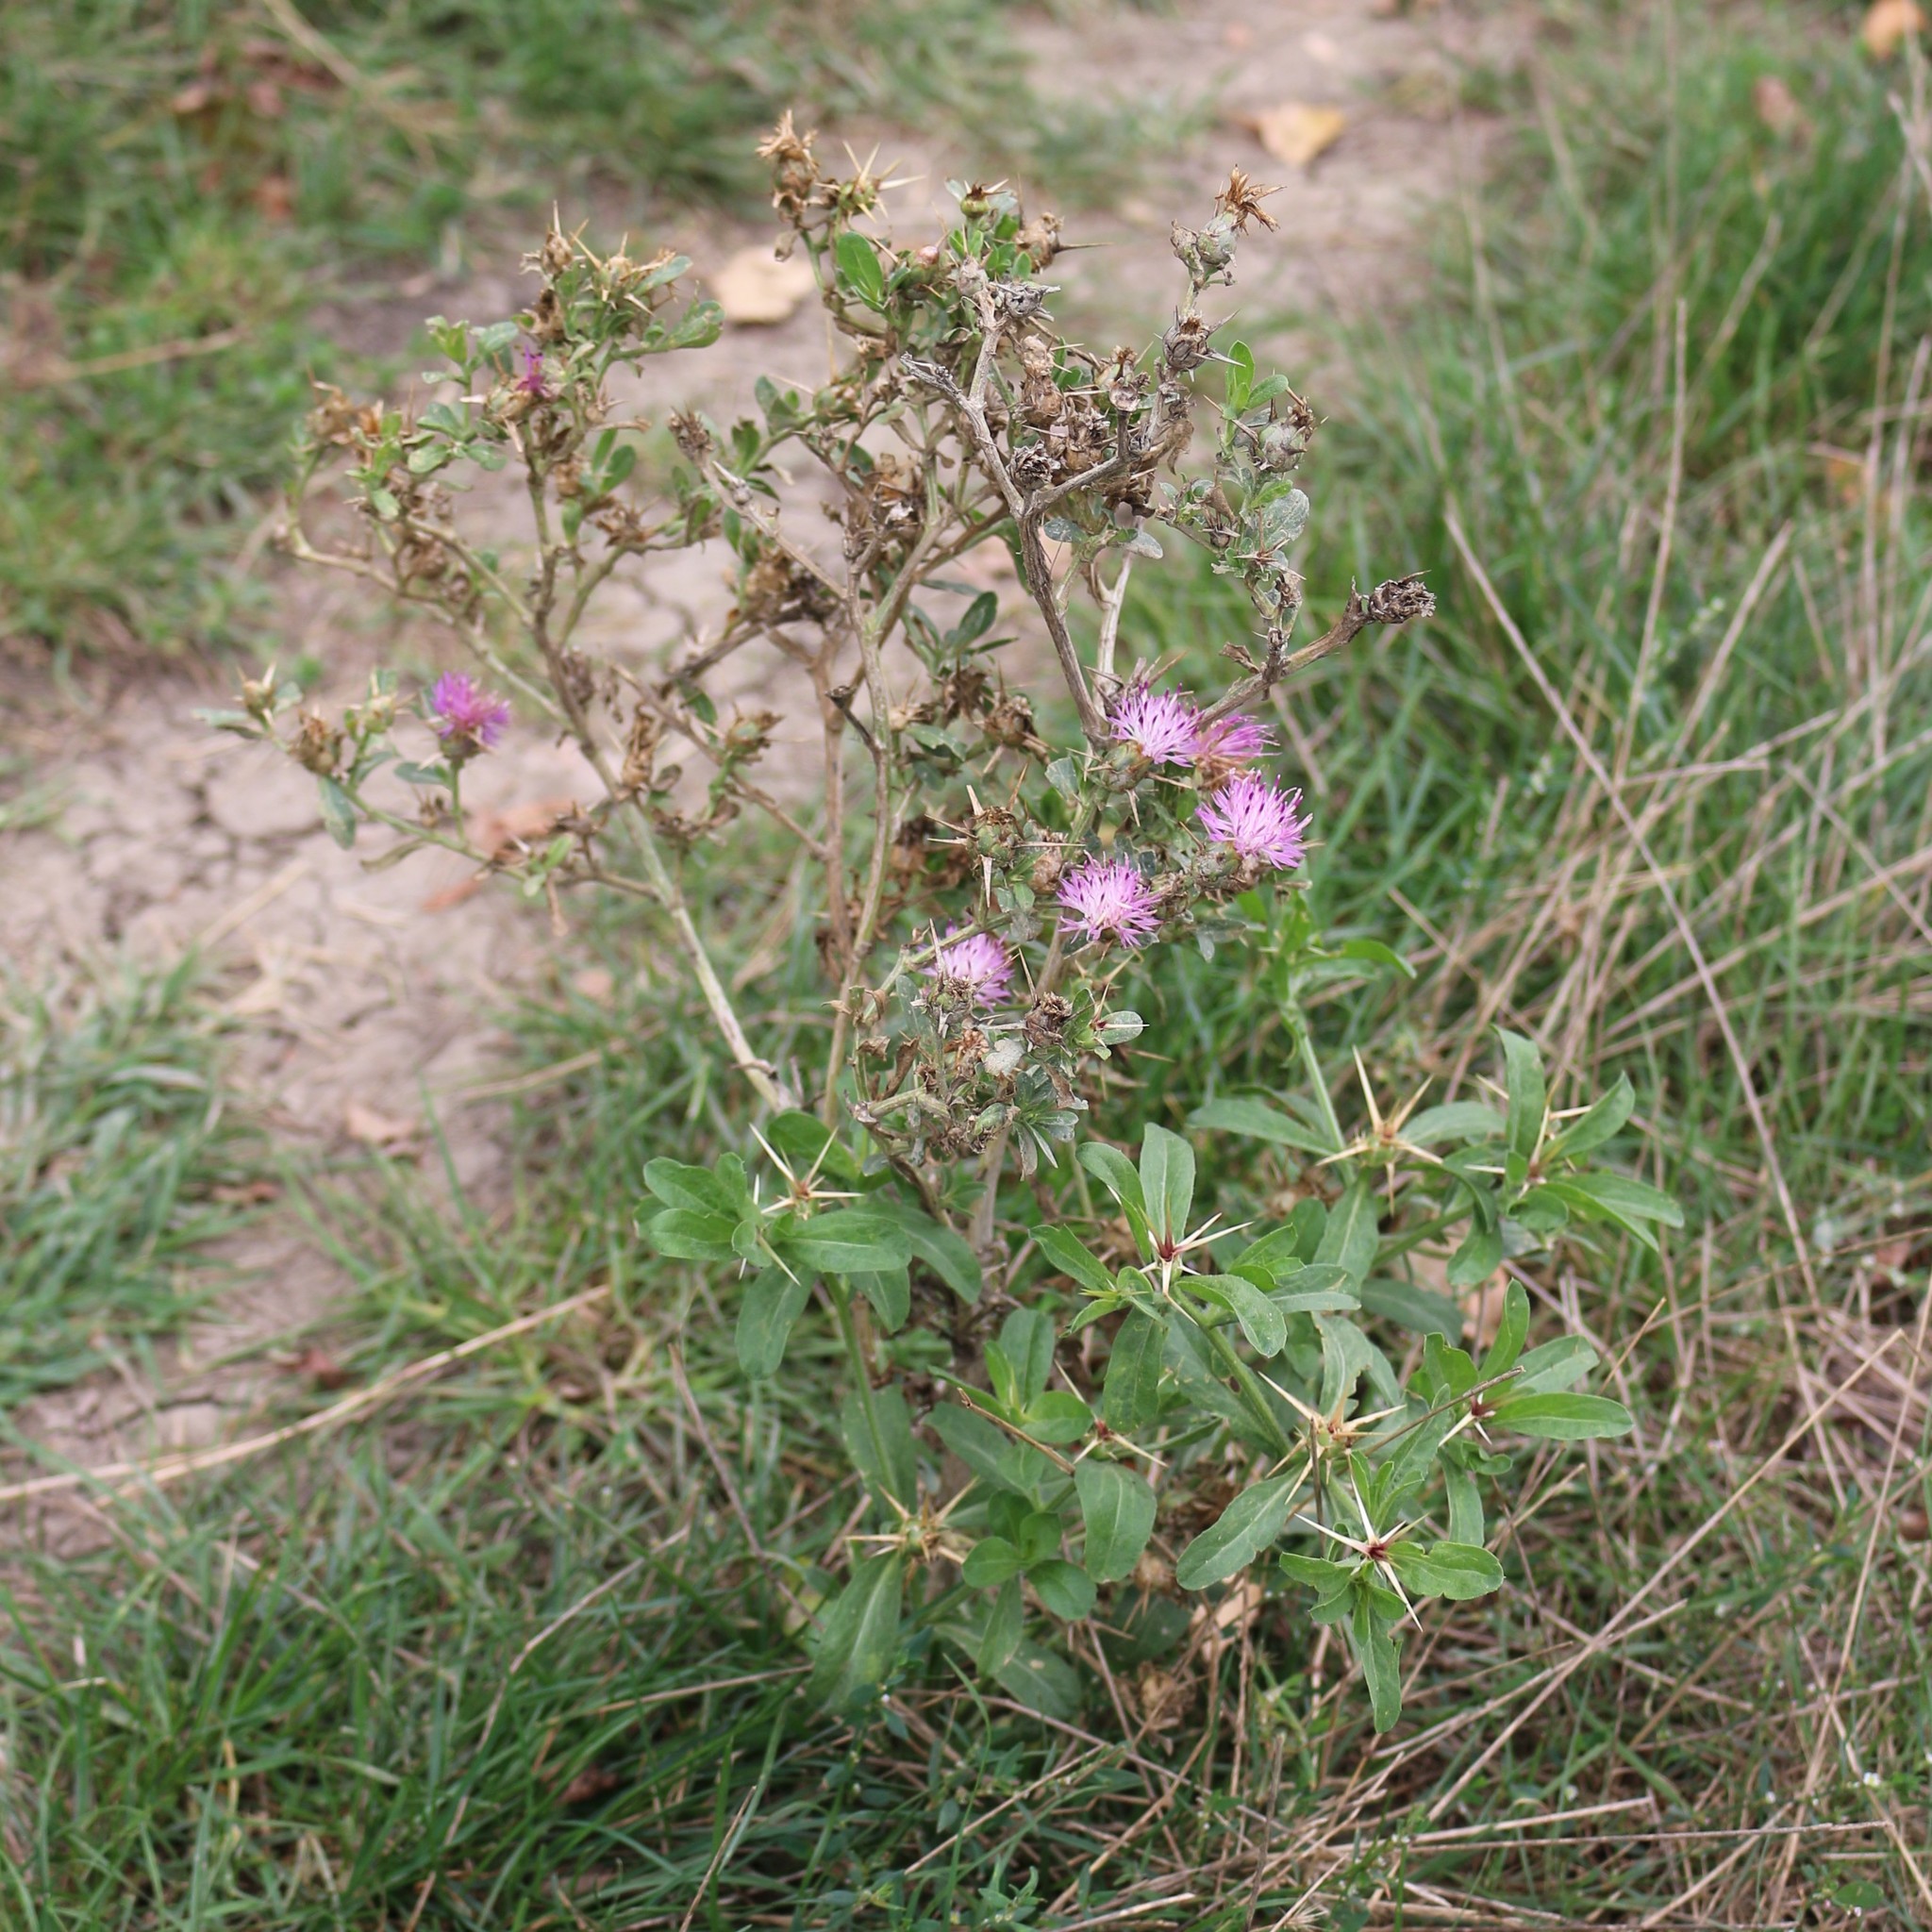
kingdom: Plantae
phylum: Tracheophyta
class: Magnoliopsida
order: Asterales
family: Asteraceae
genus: Centaurea
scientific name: Centaurea iberica
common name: Iberian knapweed
